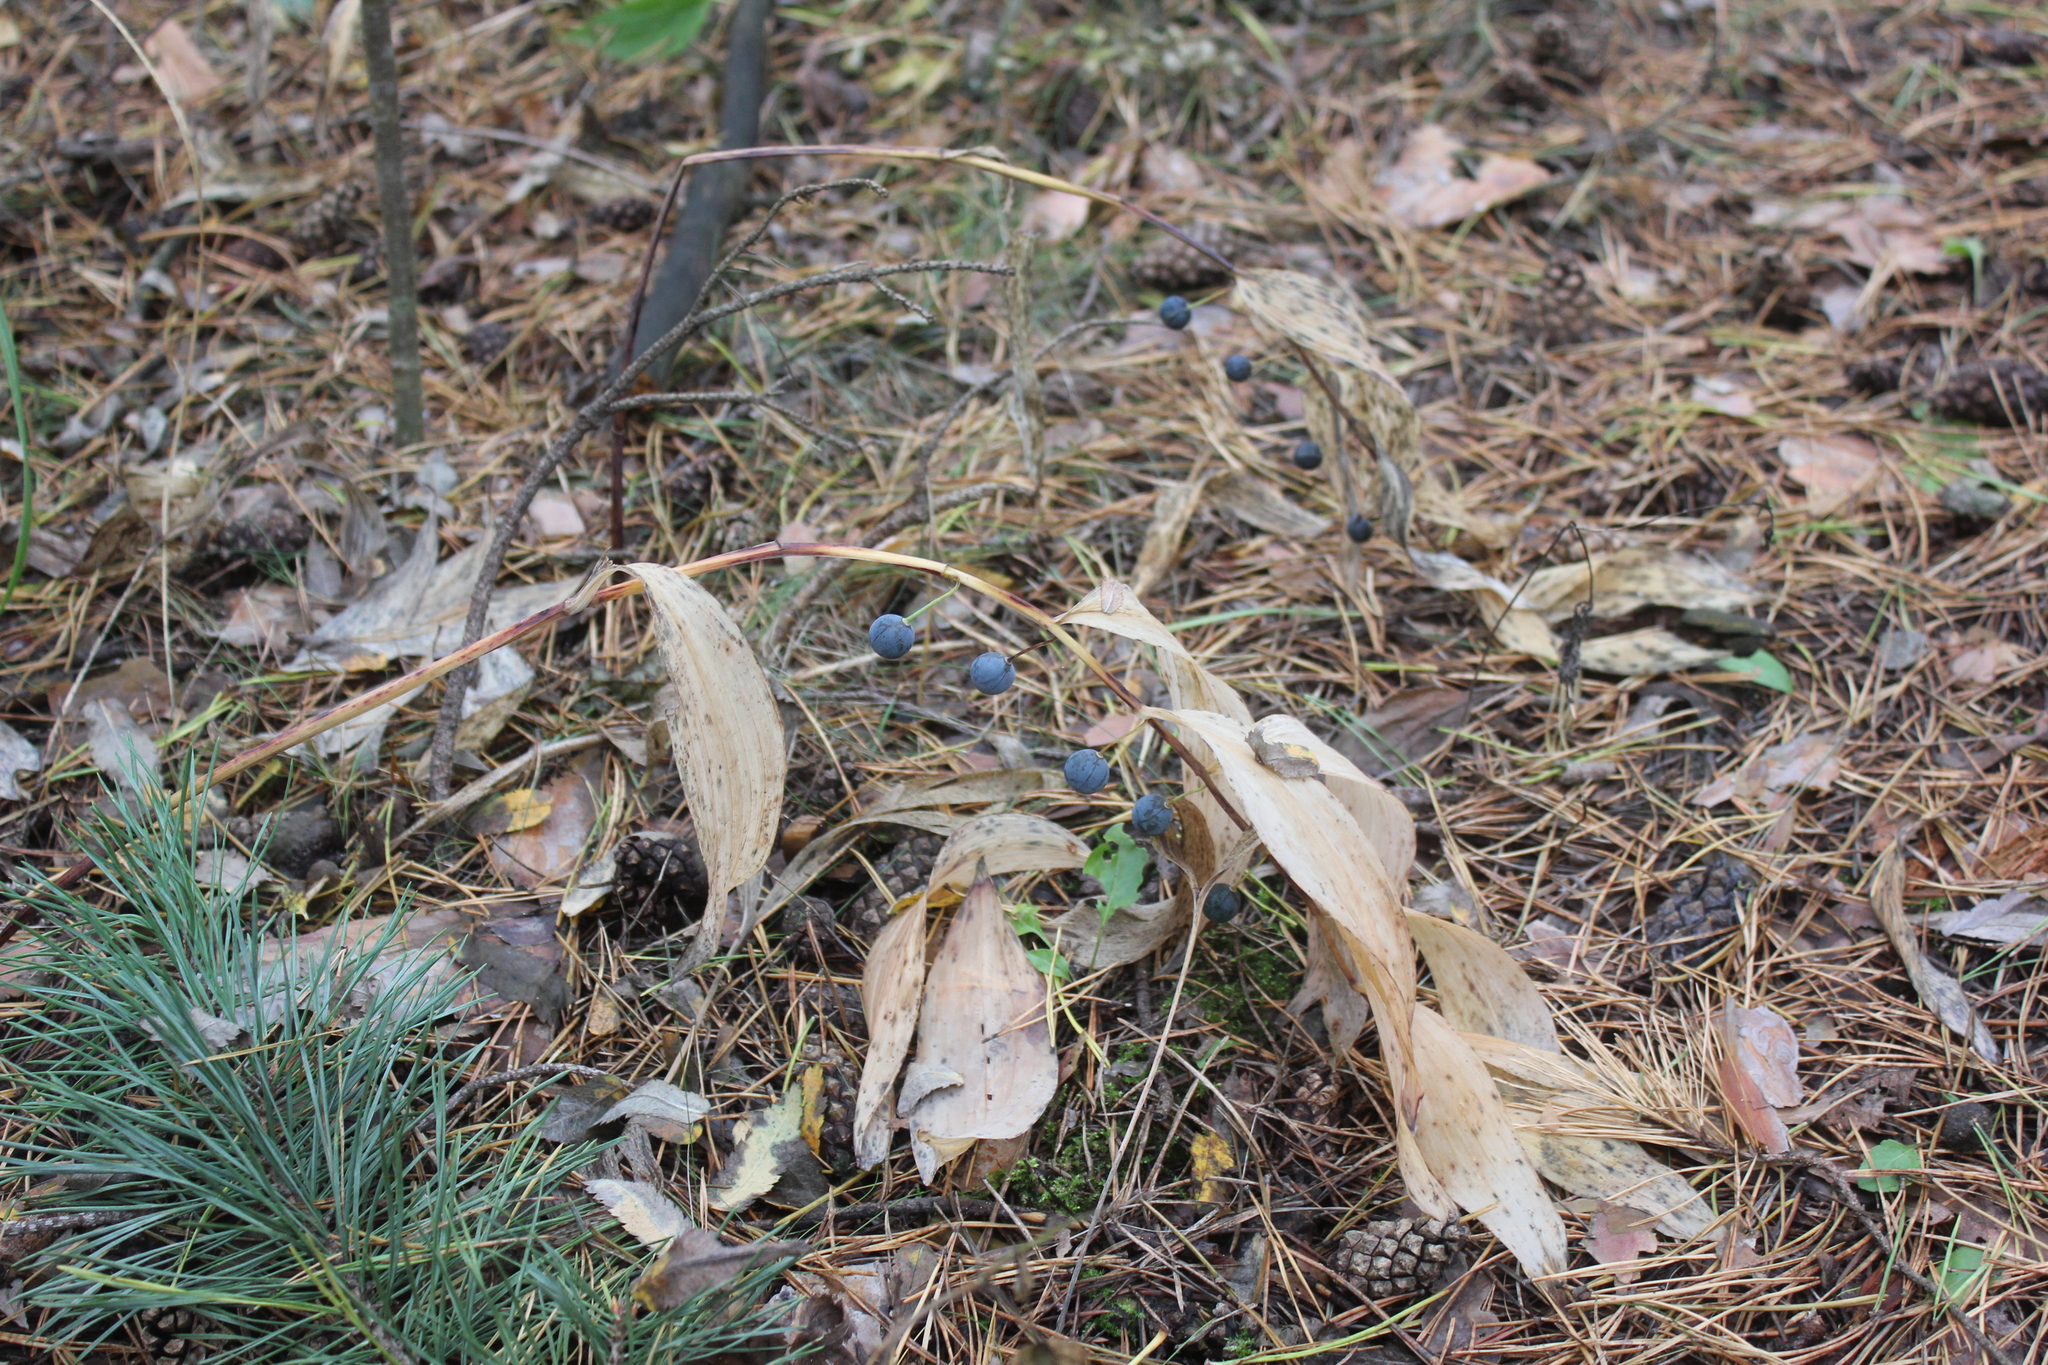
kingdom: Plantae
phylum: Tracheophyta
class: Liliopsida
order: Asparagales
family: Asparagaceae
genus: Polygonatum
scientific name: Polygonatum odoratum
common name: Angular solomon's-seal
